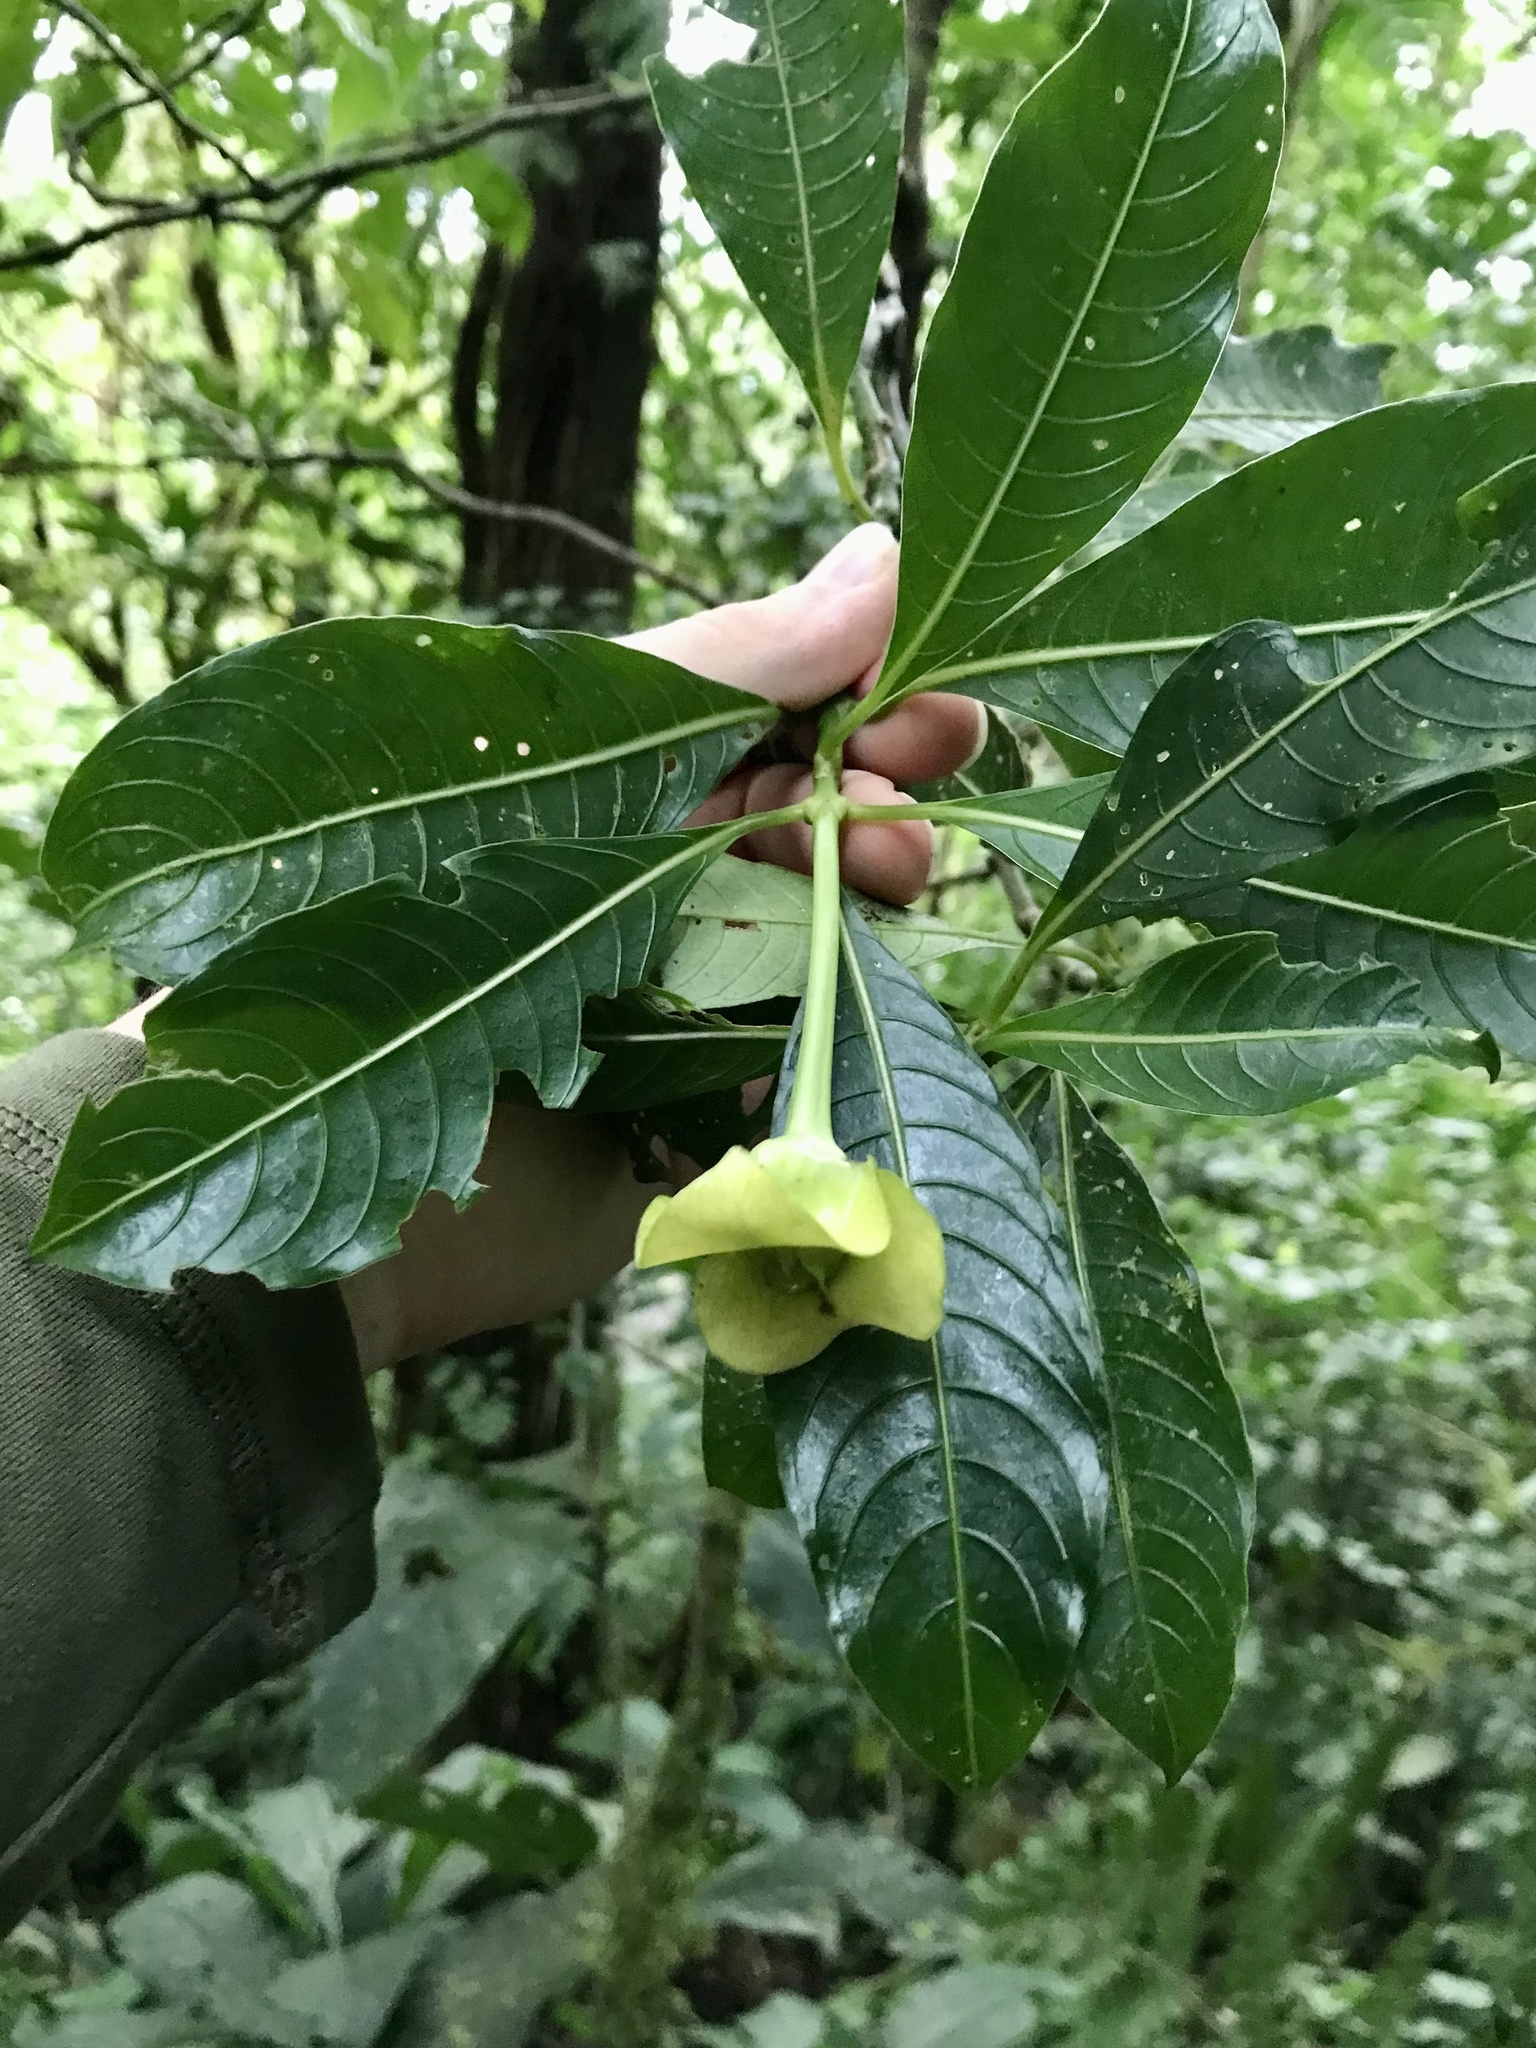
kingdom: Plantae
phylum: Tracheophyta
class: Magnoliopsida
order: Gentianales
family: Rubiaceae
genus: Palicourea
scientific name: Palicourea elata
